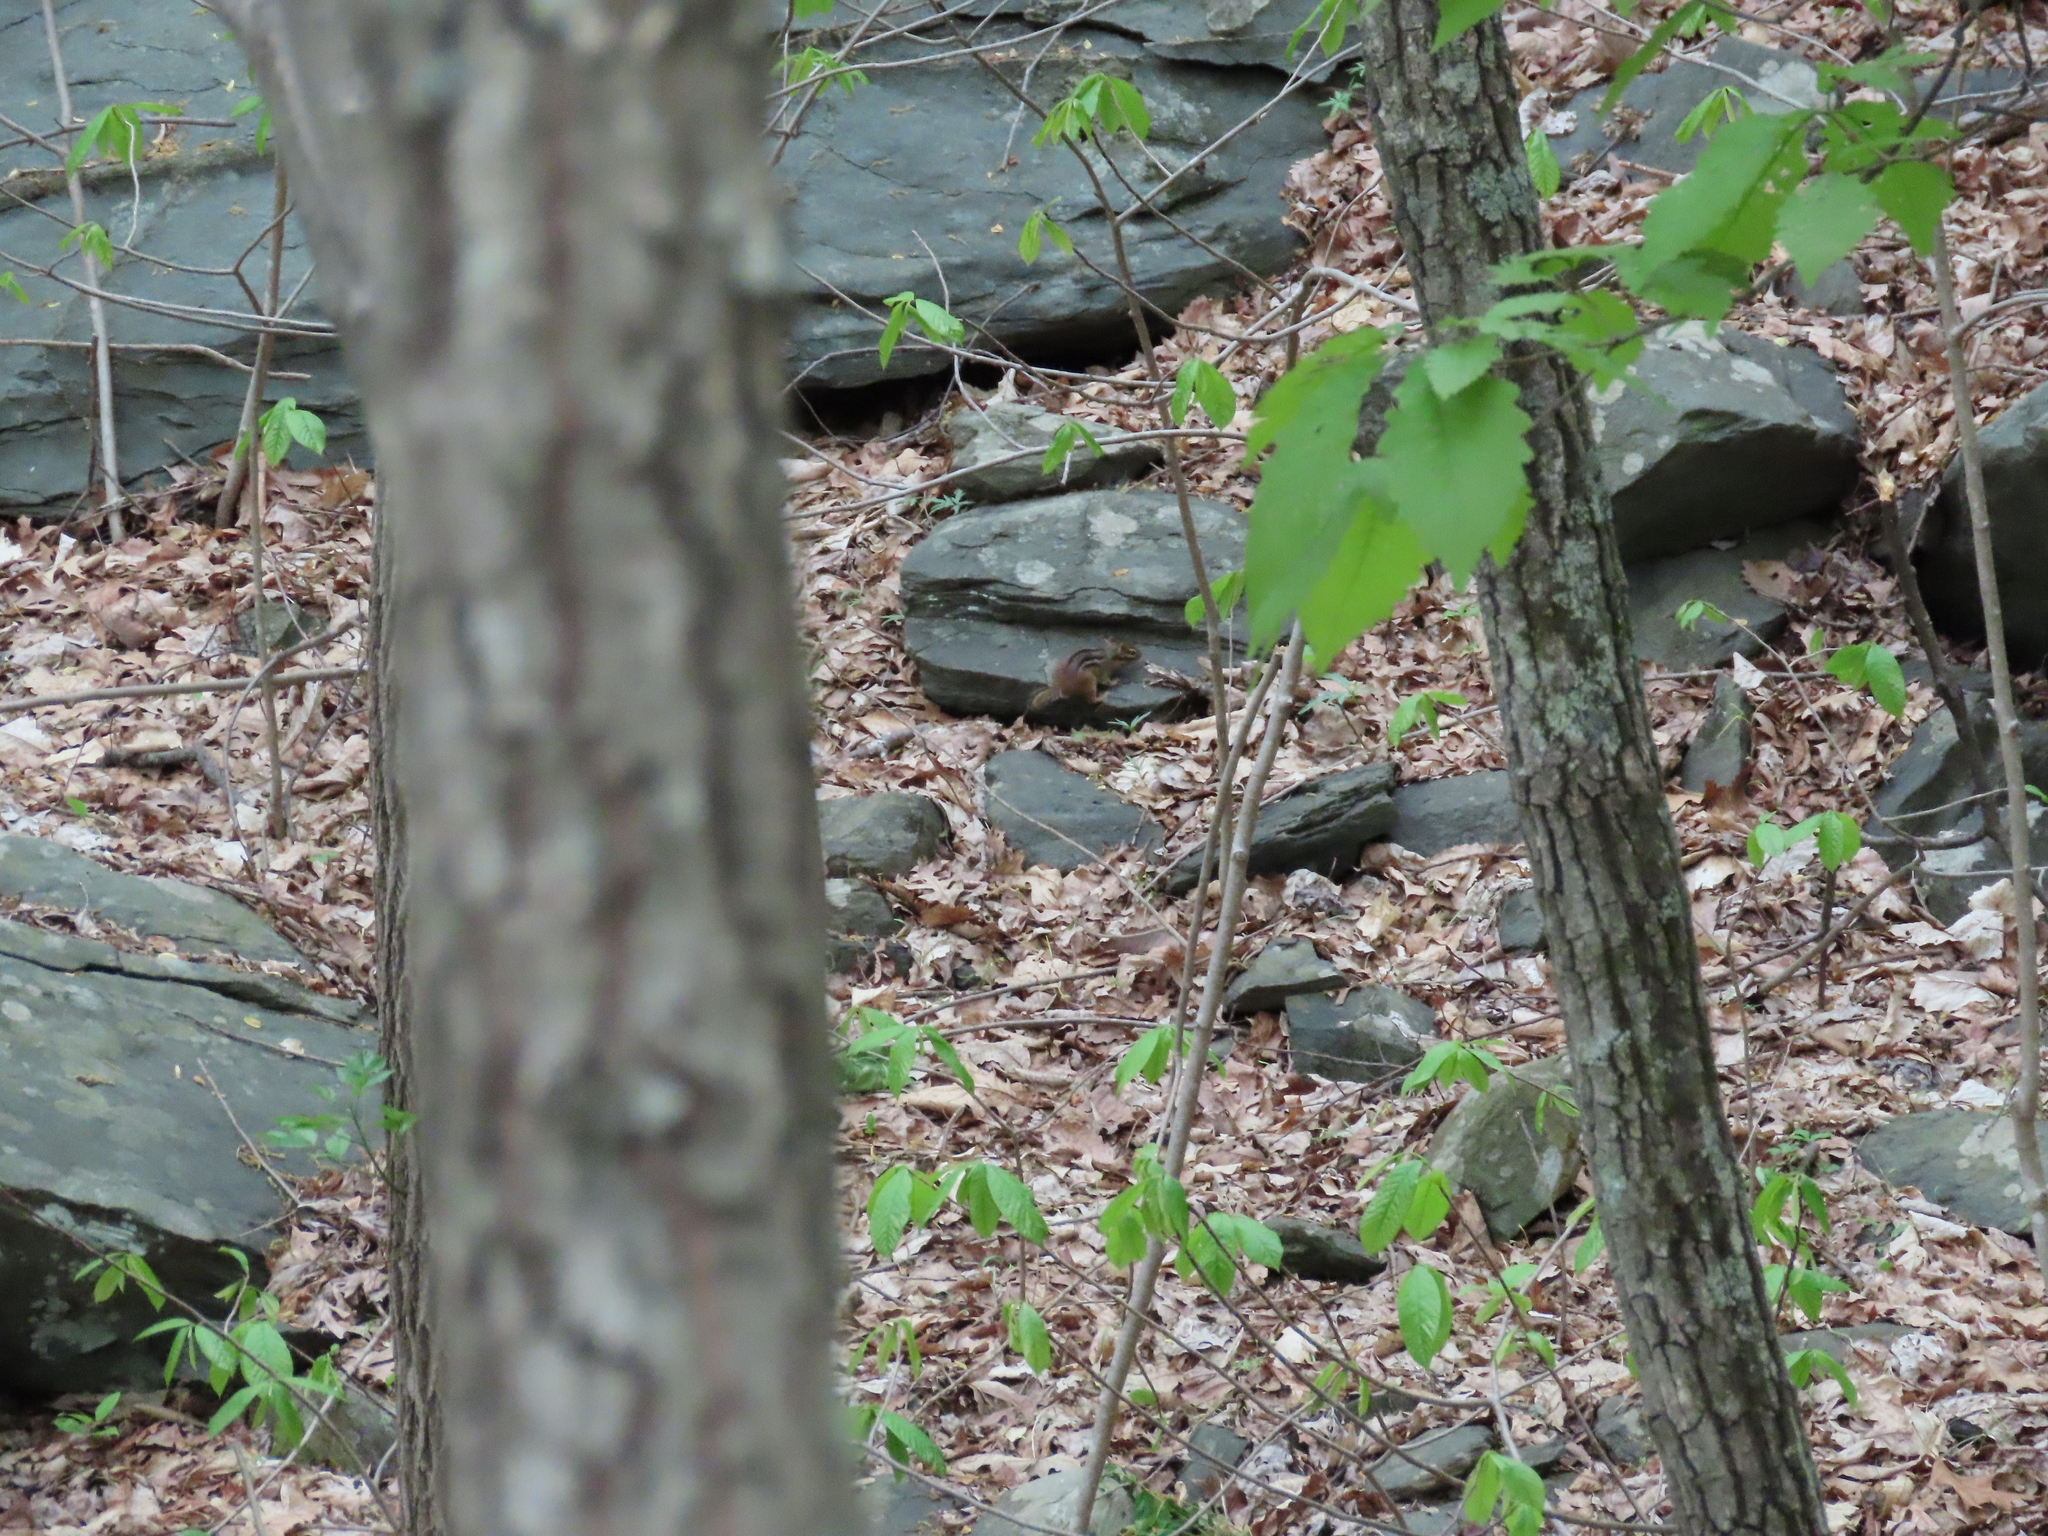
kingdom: Animalia
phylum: Chordata
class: Mammalia
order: Rodentia
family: Sciuridae
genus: Tamias
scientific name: Tamias striatus
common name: Eastern chipmunk
